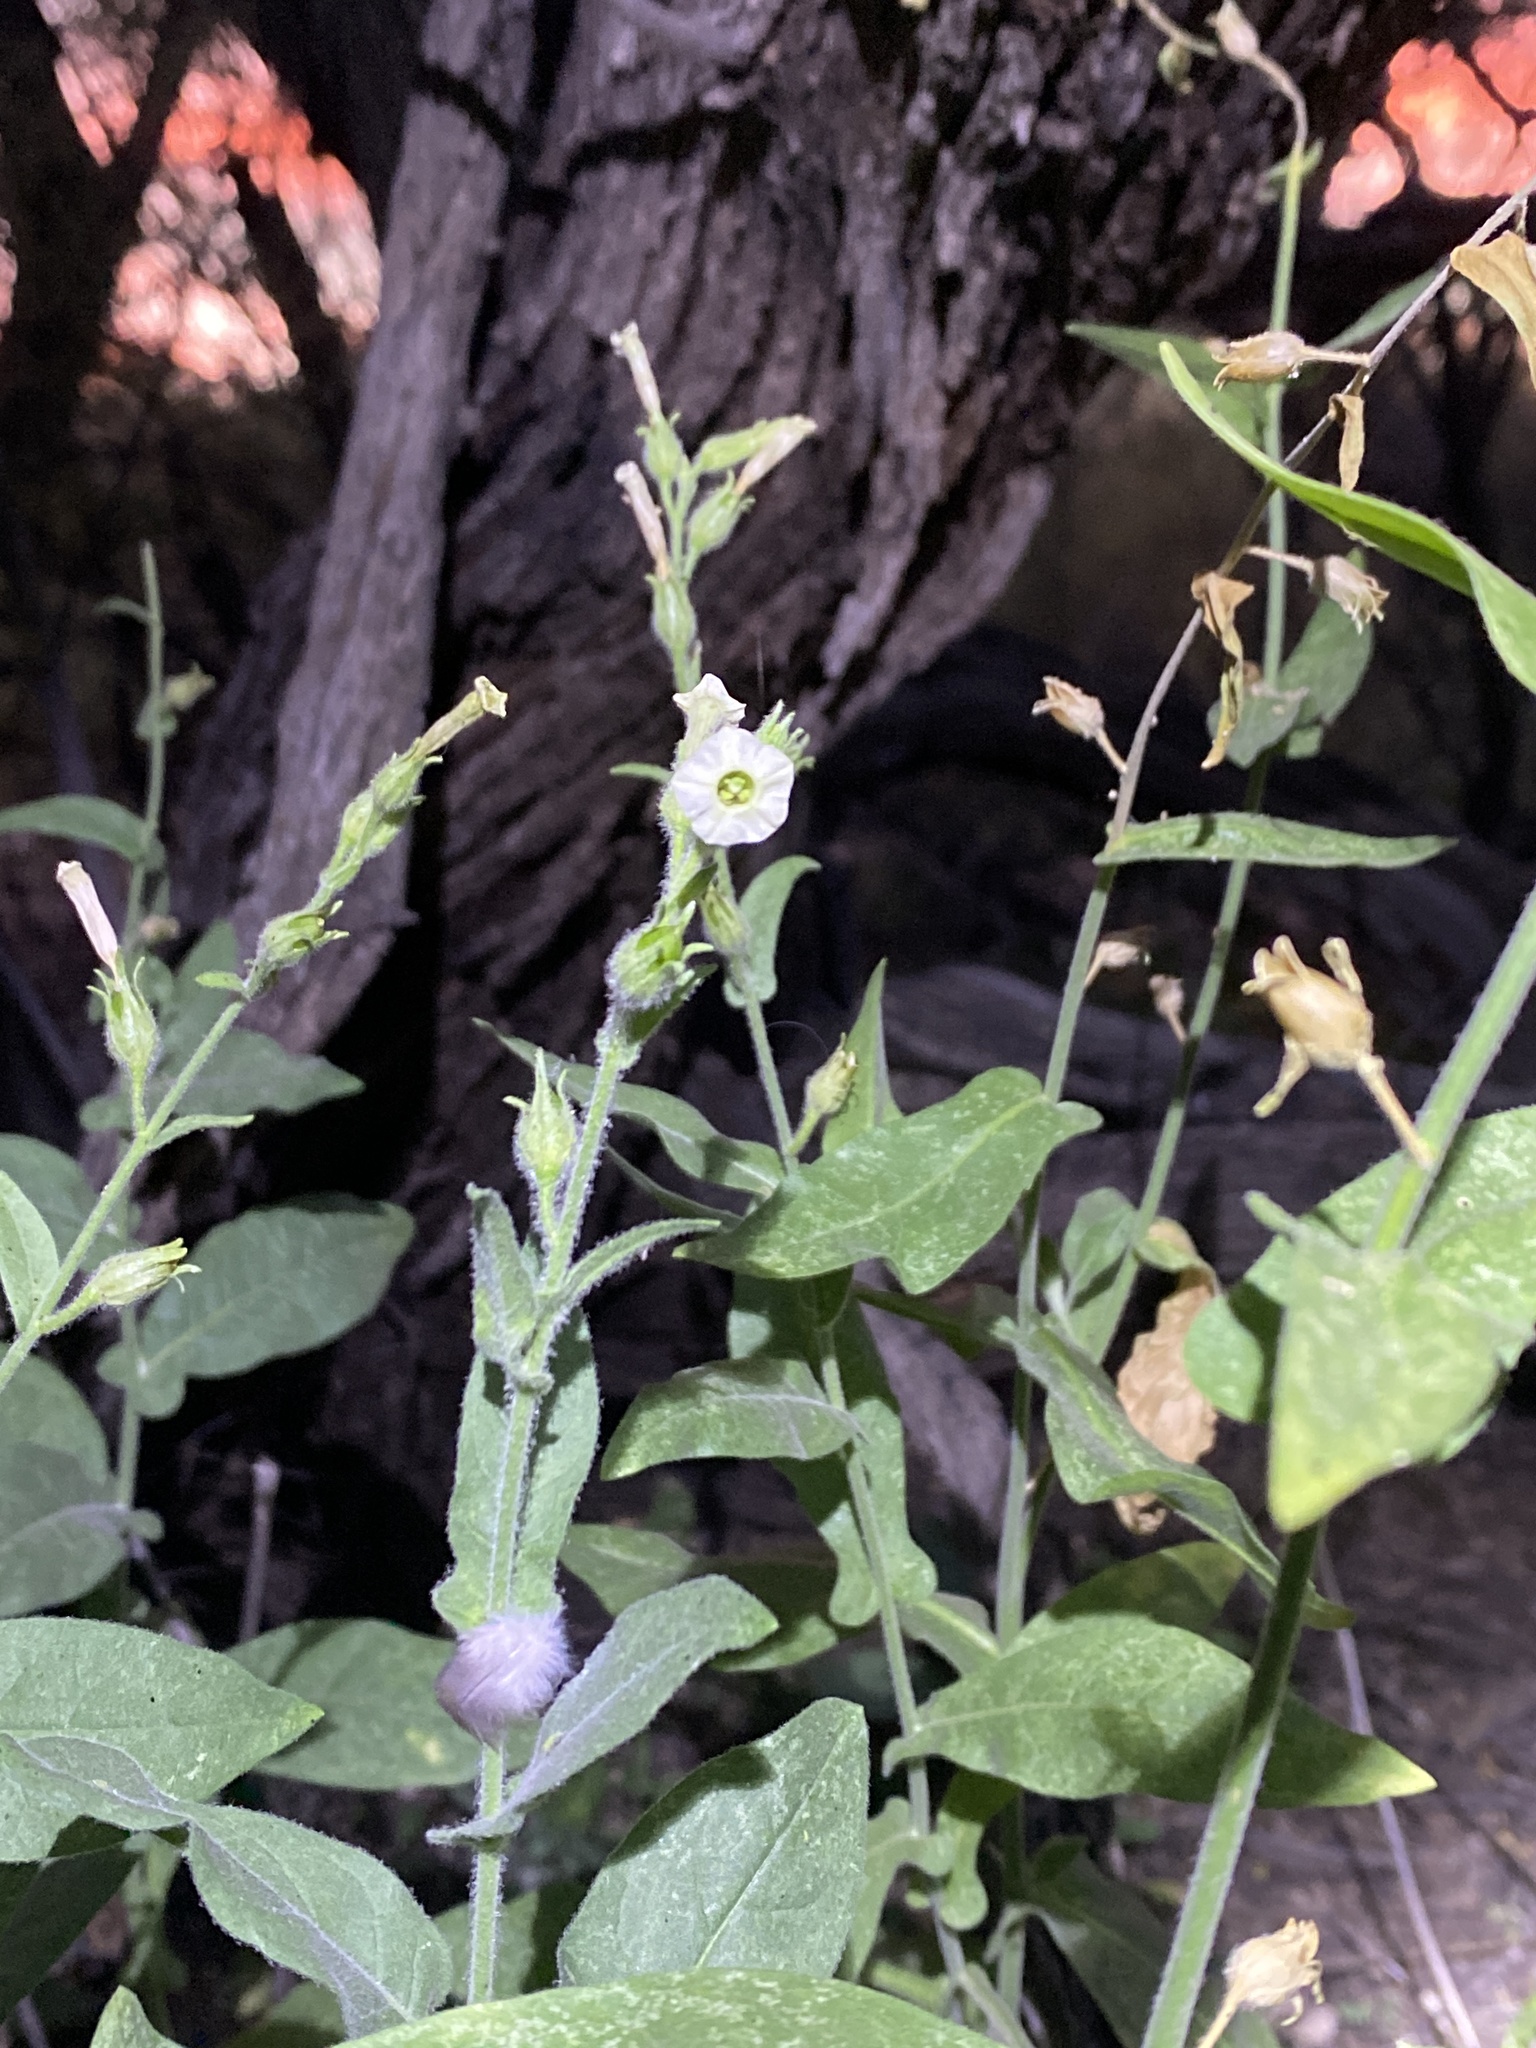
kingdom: Plantae
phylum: Tracheophyta
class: Magnoliopsida
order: Solanales
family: Solanaceae
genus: Nicotiana
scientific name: Nicotiana obtusifolia
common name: Desert tobacco
